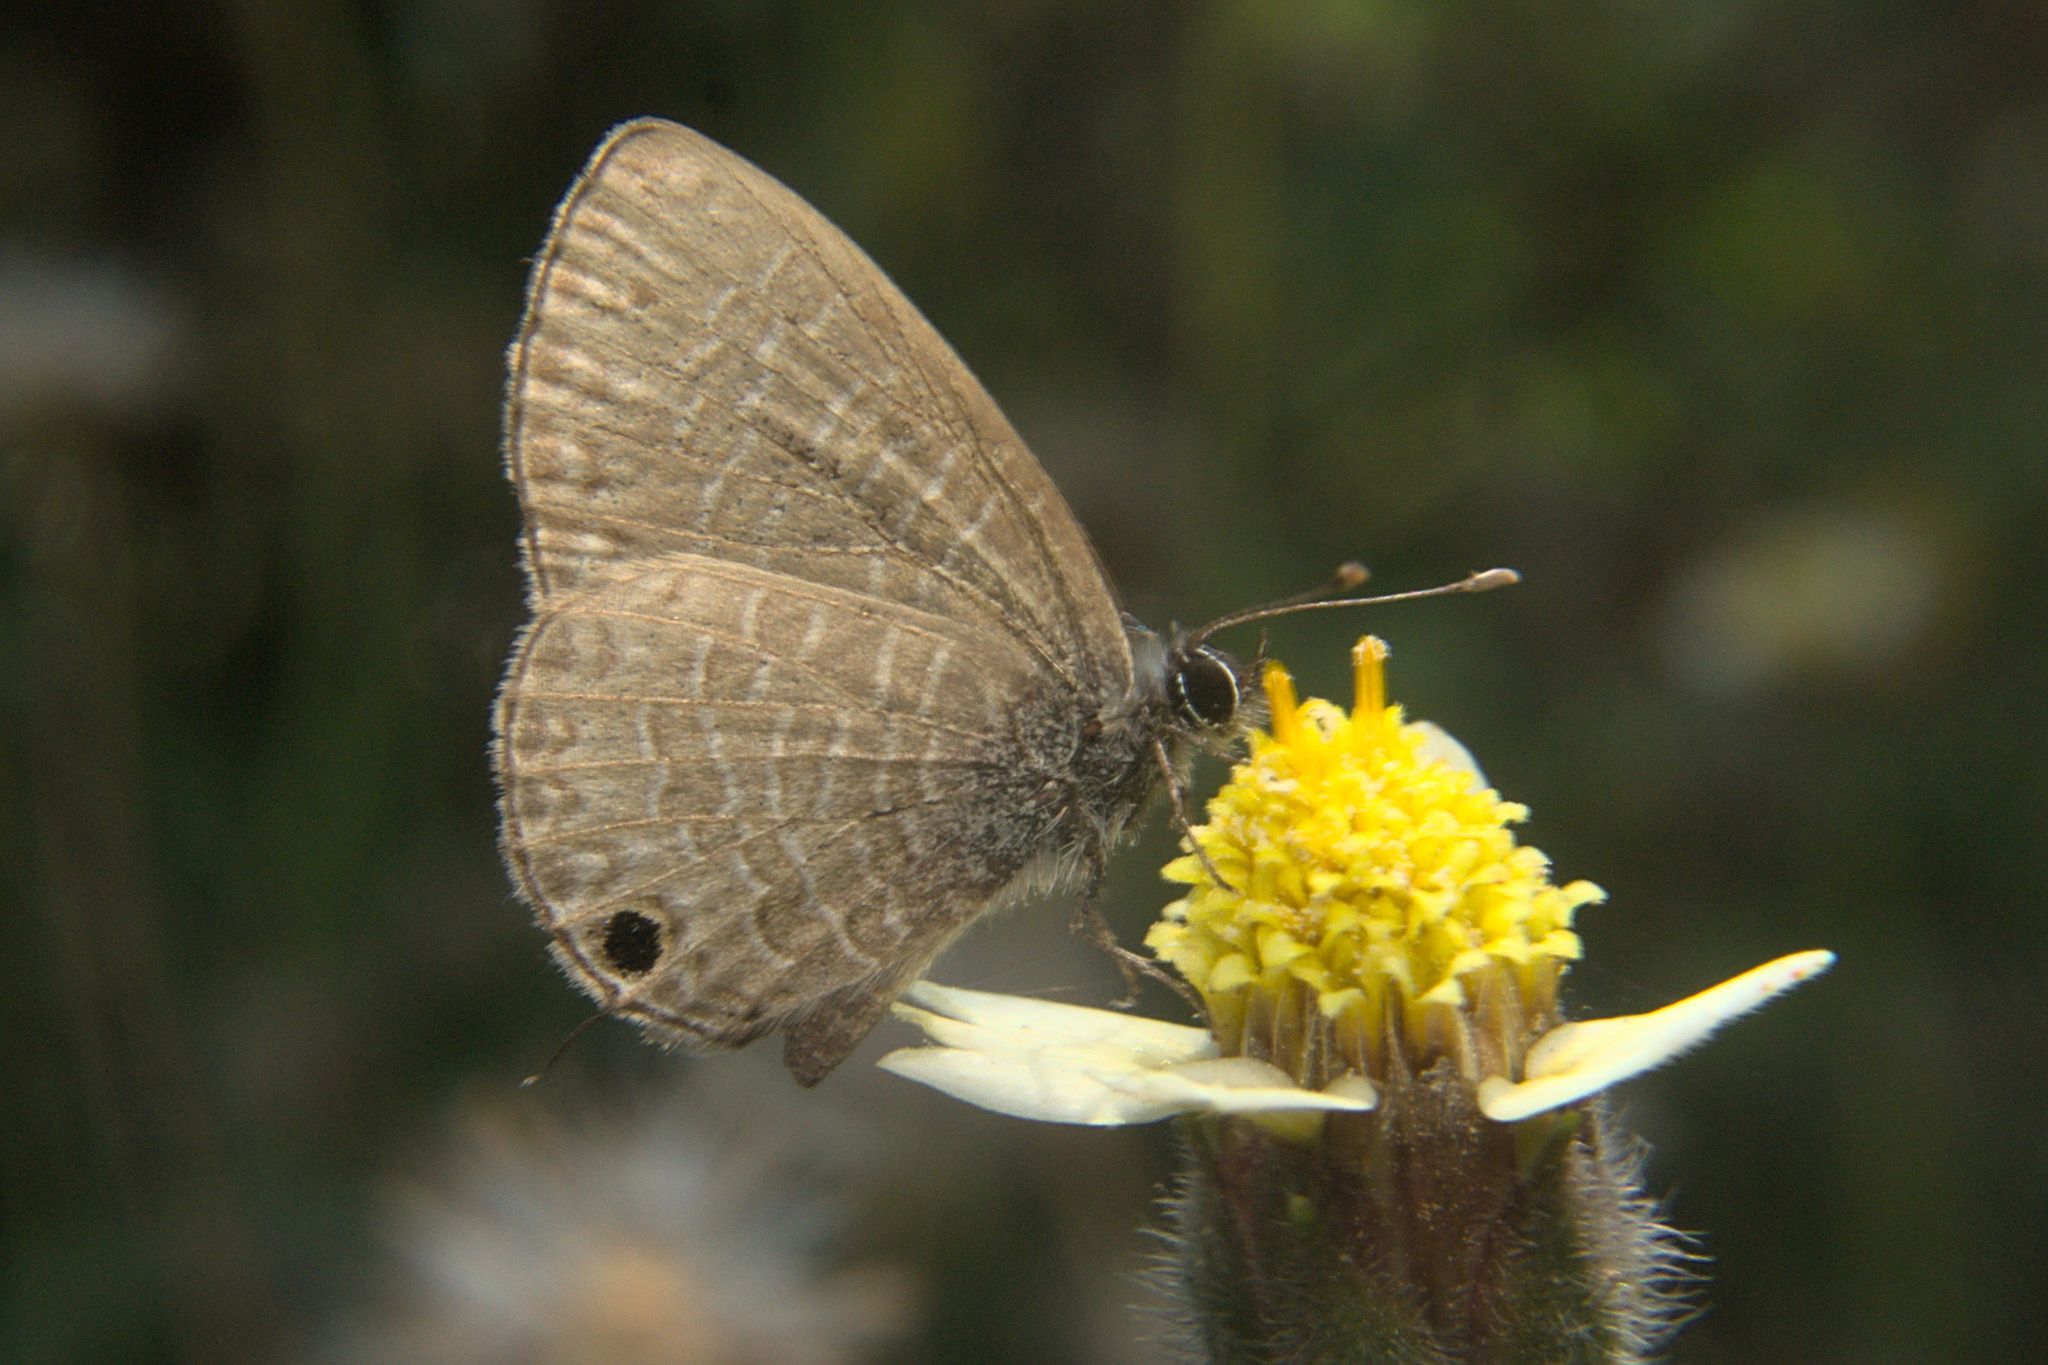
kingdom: Animalia
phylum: Arthropoda
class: Insecta
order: Lepidoptera
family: Lycaenidae
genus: Prosotas
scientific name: Prosotas nora
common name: Common line blue
